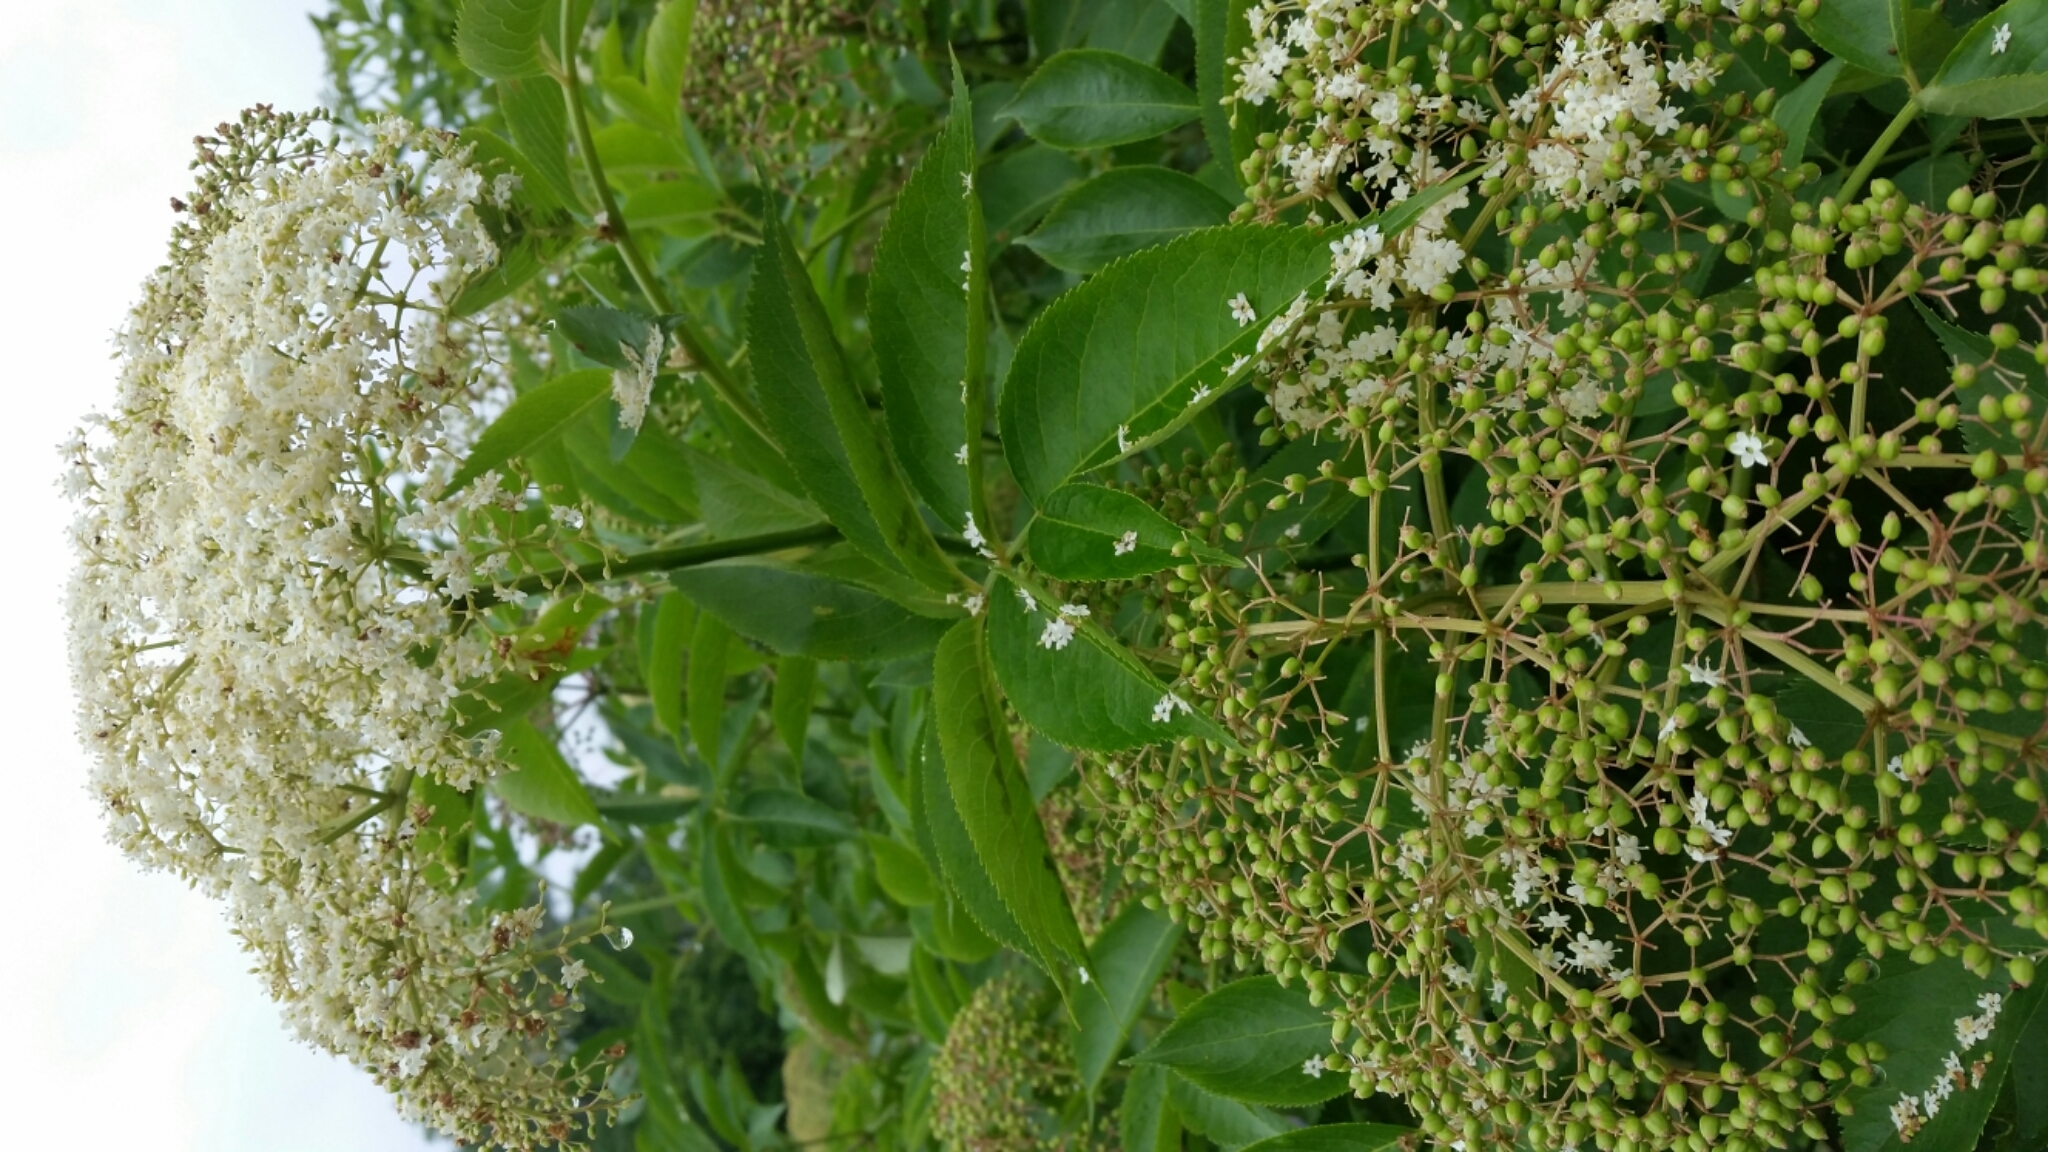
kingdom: Plantae
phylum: Tracheophyta
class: Magnoliopsida
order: Dipsacales
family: Viburnaceae
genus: Sambucus
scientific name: Sambucus canadensis
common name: American elder
